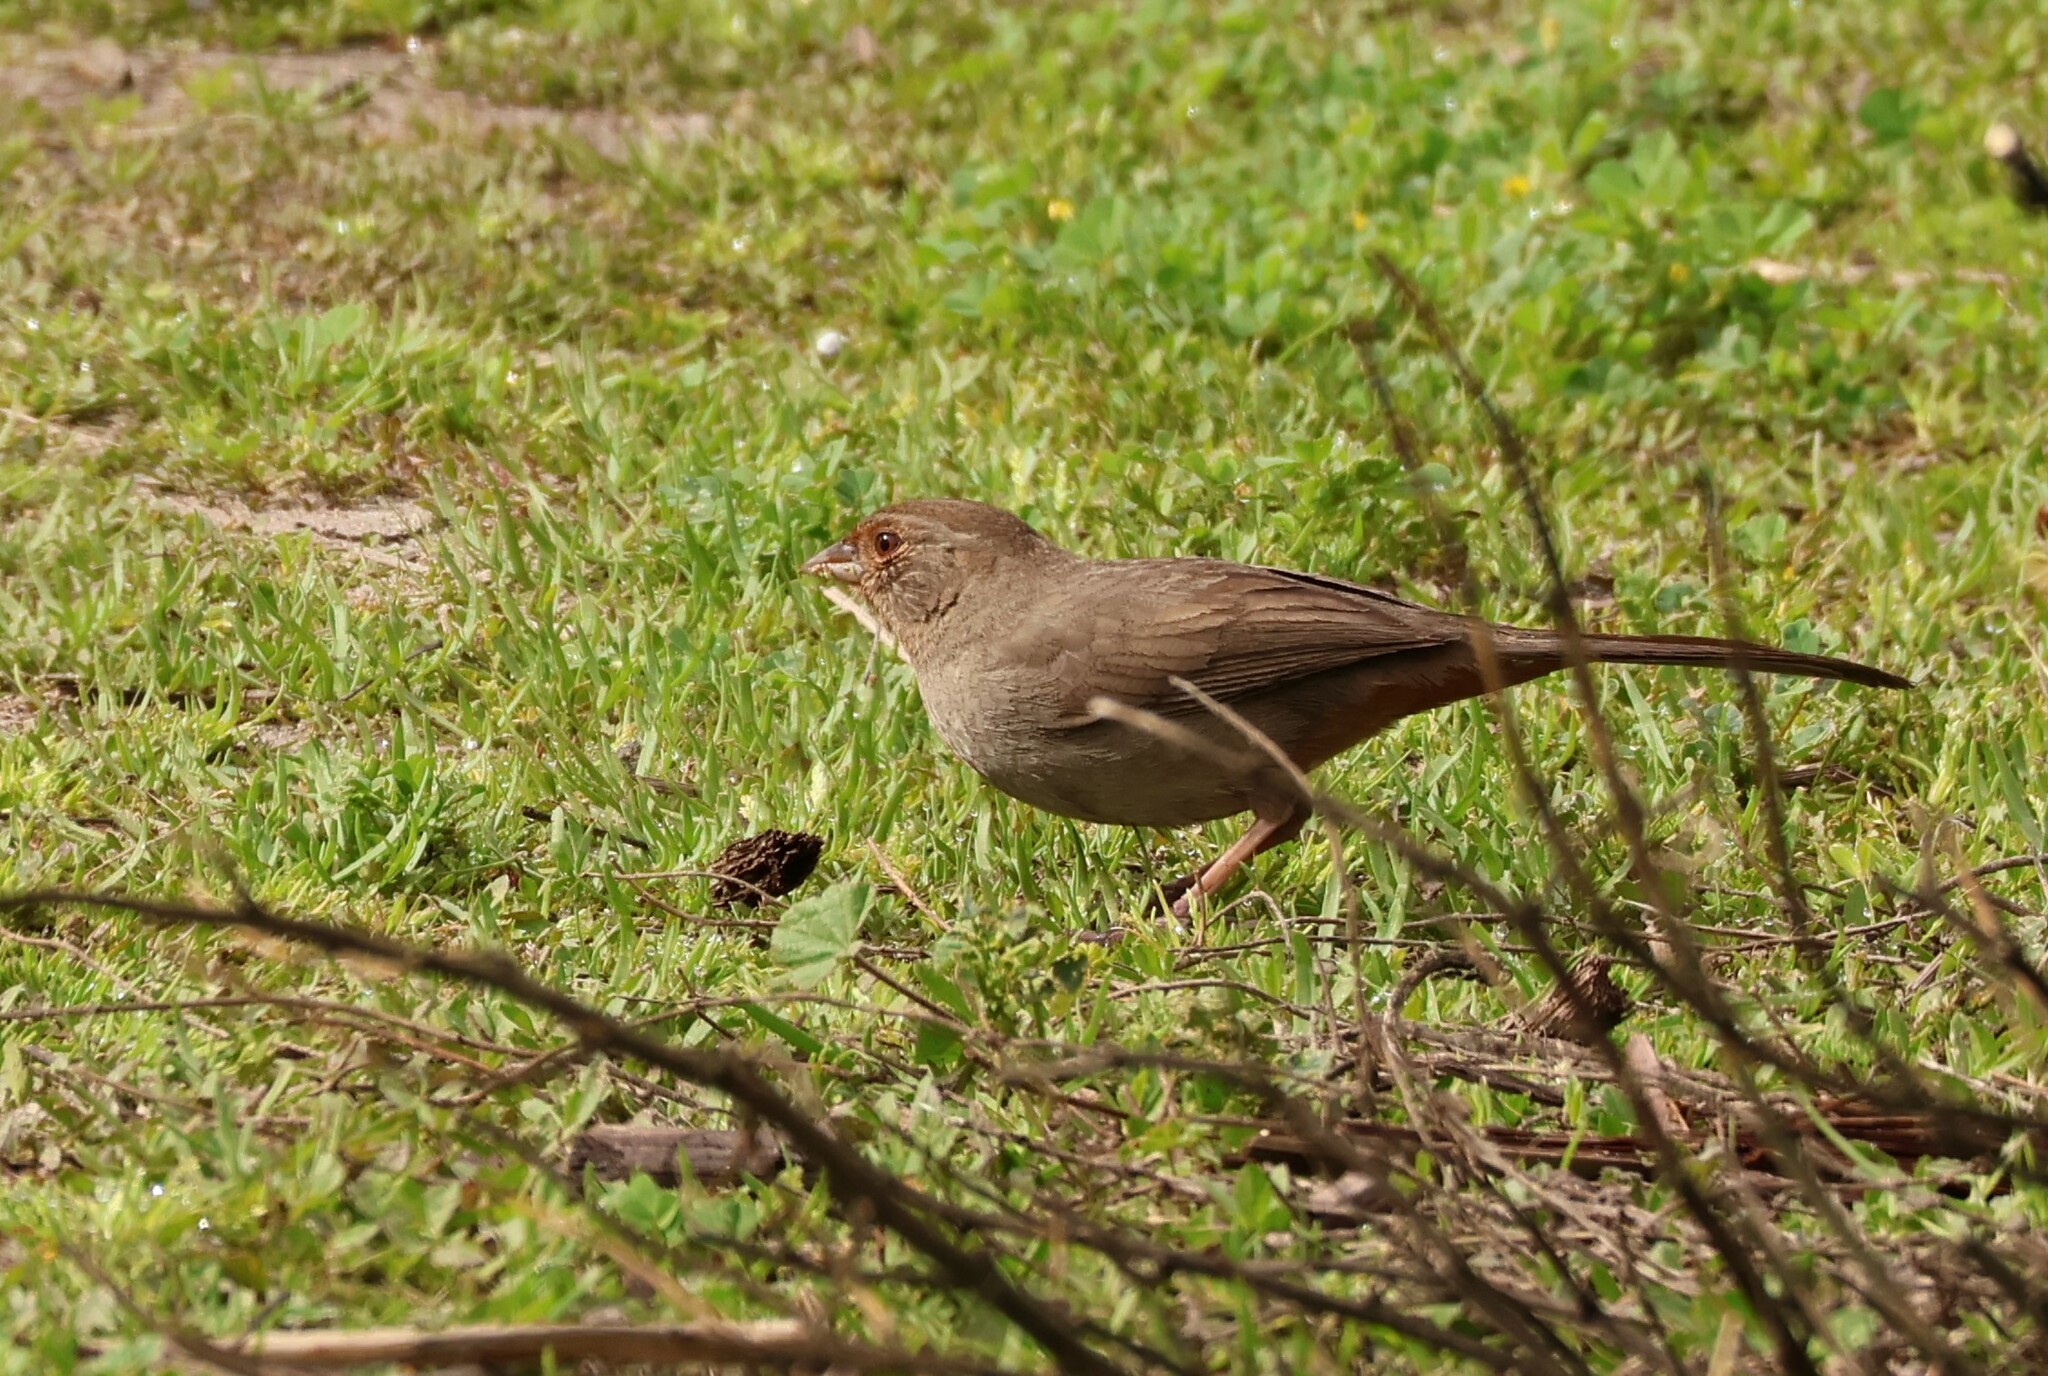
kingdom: Animalia
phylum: Chordata
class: Aves
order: Passeriformes
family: Passerellidae
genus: Melozone
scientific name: Melozone crissalis
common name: California towhee
